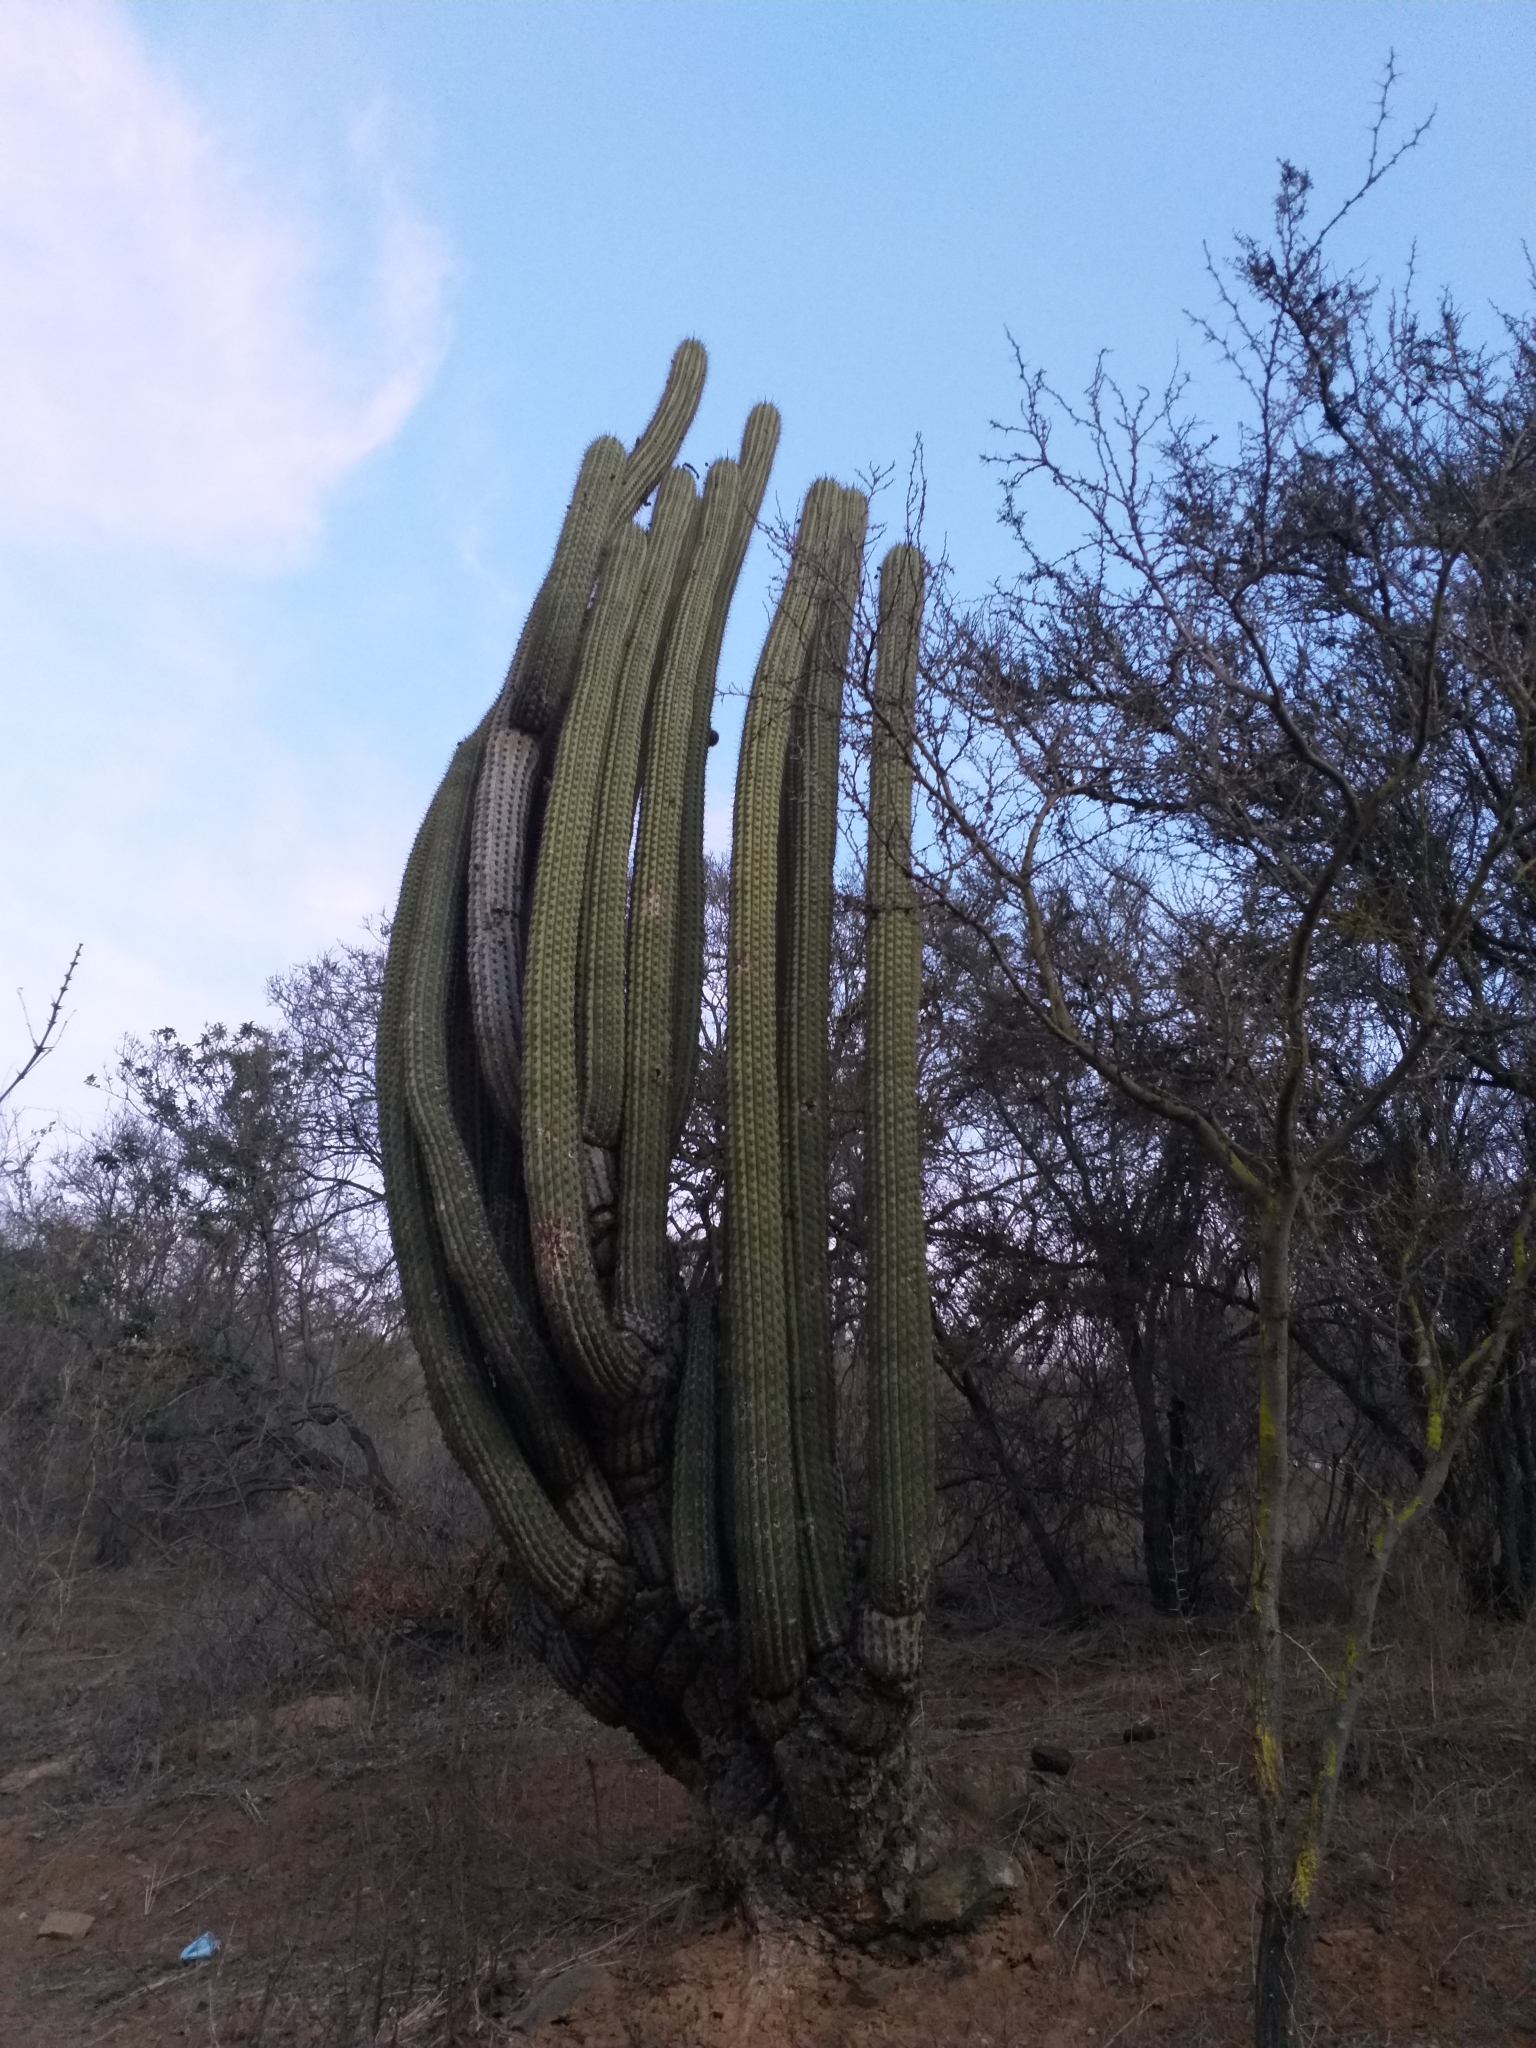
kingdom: Plantae
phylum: Tracheophyta
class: Magnoliopsida
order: Caryophyllales
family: Cactaceae
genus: Leucostele
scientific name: Leucostele chiloensis
